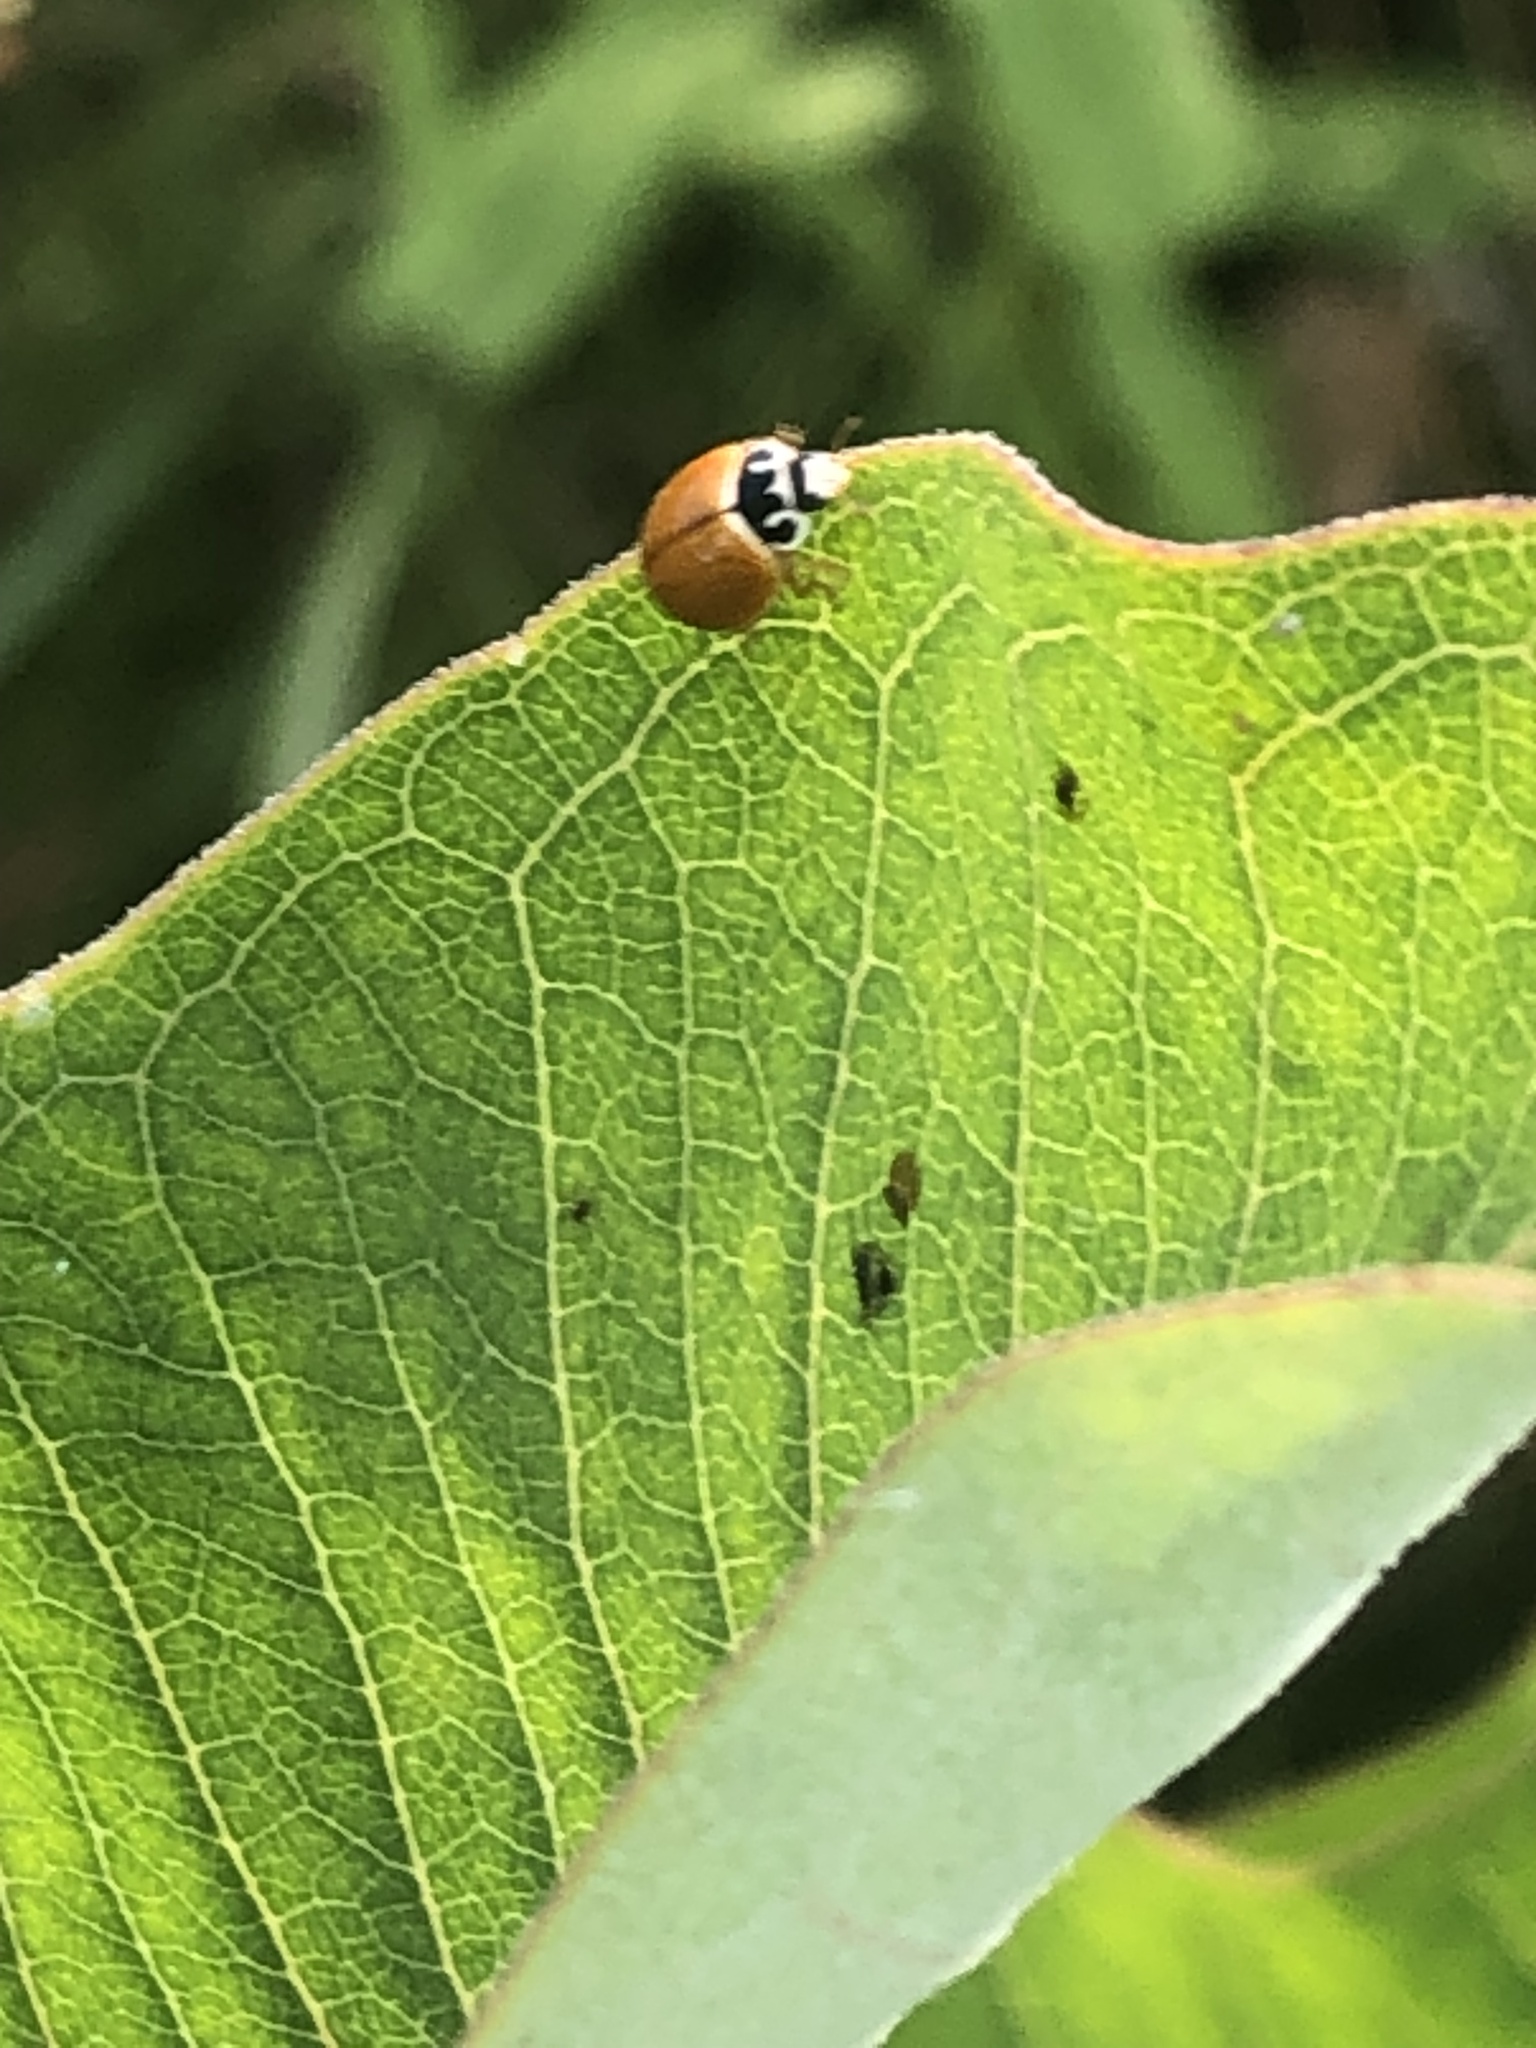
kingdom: Animalia
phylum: Arthropoda
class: Insecta
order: Coleoptera
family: Coccinellidae
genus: Cycloneda
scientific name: Cycloneda munda
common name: Polished lady beetle
